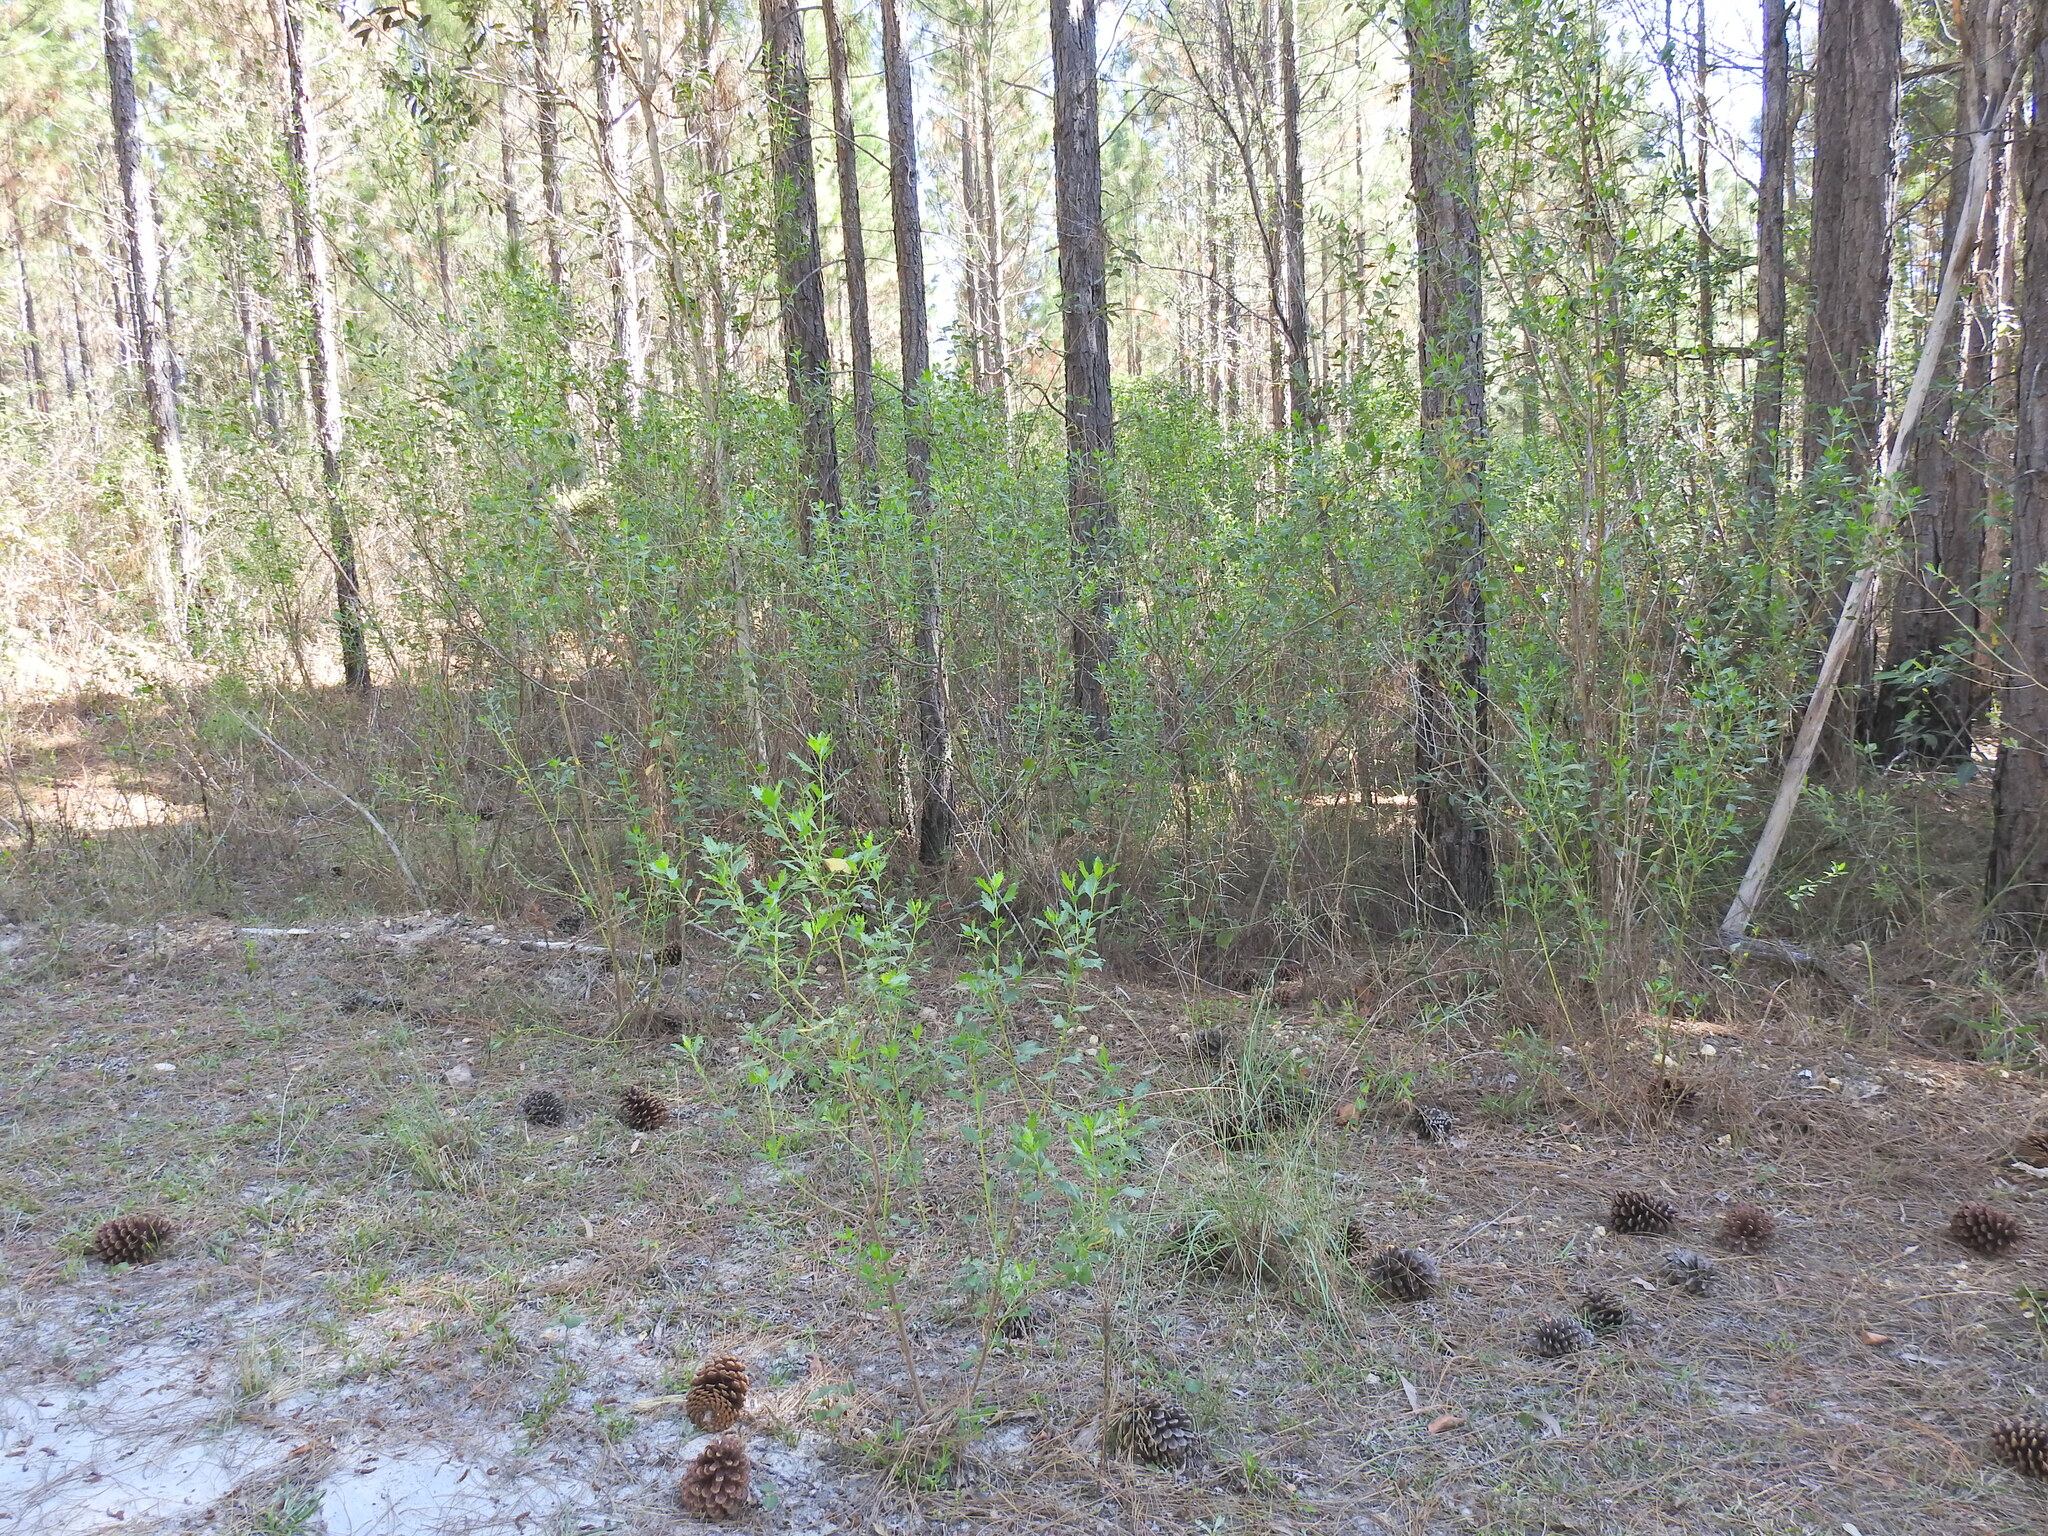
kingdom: Plantae
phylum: Tracheophyta
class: Magnoliopsida
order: Asterales
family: Asteraceae
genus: Baccharis
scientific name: Baccharis halimifolia
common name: Eastern baccharis
